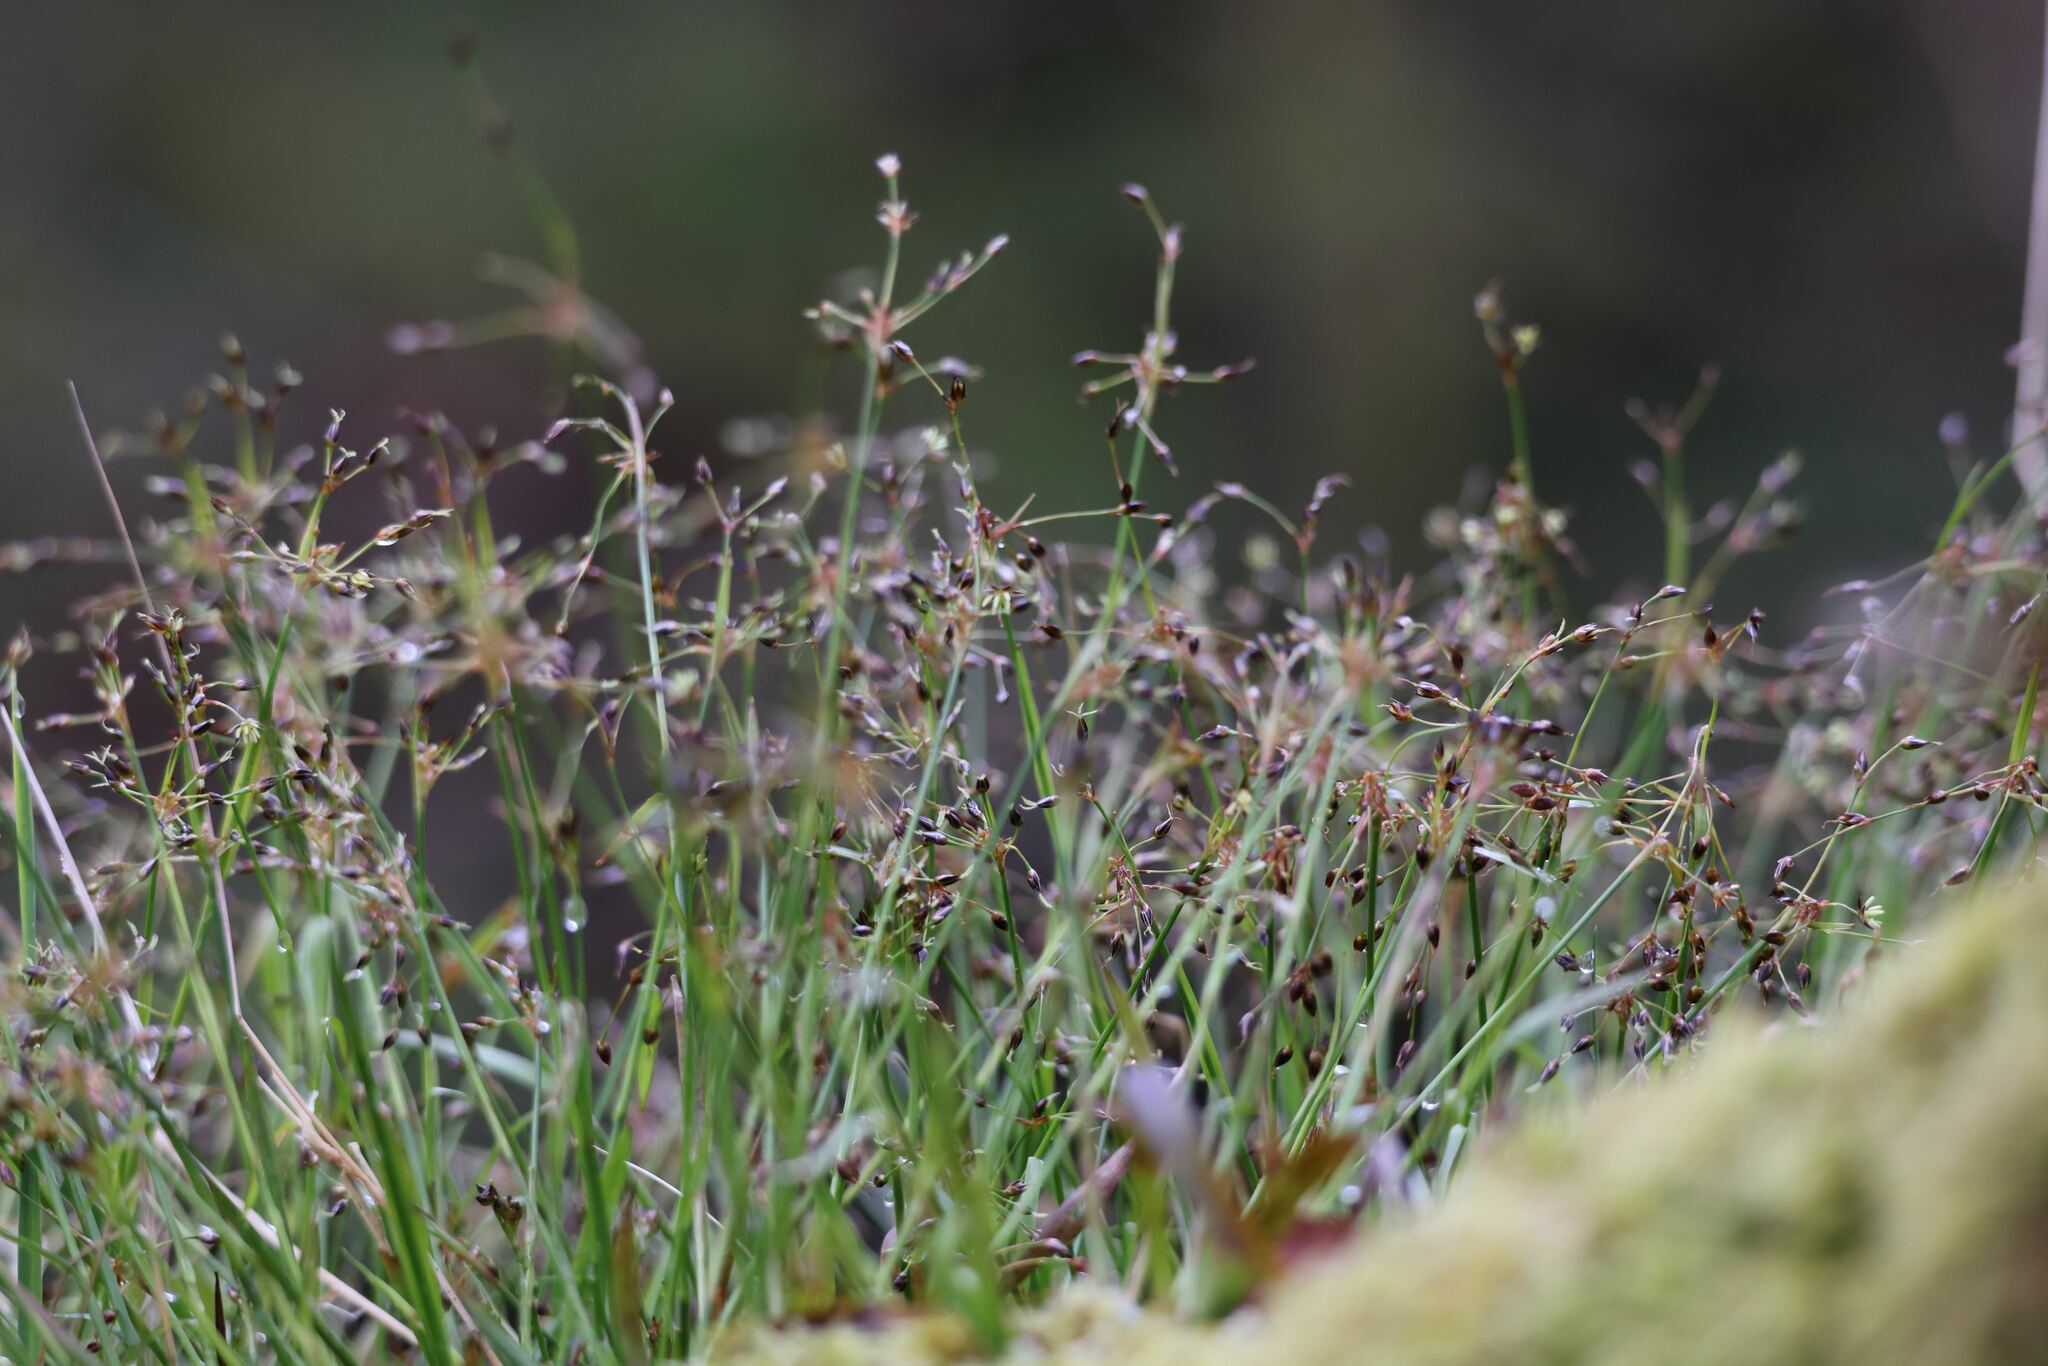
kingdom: Plantae
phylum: Tracheophyta
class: Liliopsida
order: Poales
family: Juncaceae
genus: Luzula
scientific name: Luzula pilosa
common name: Hairy wood-rush
